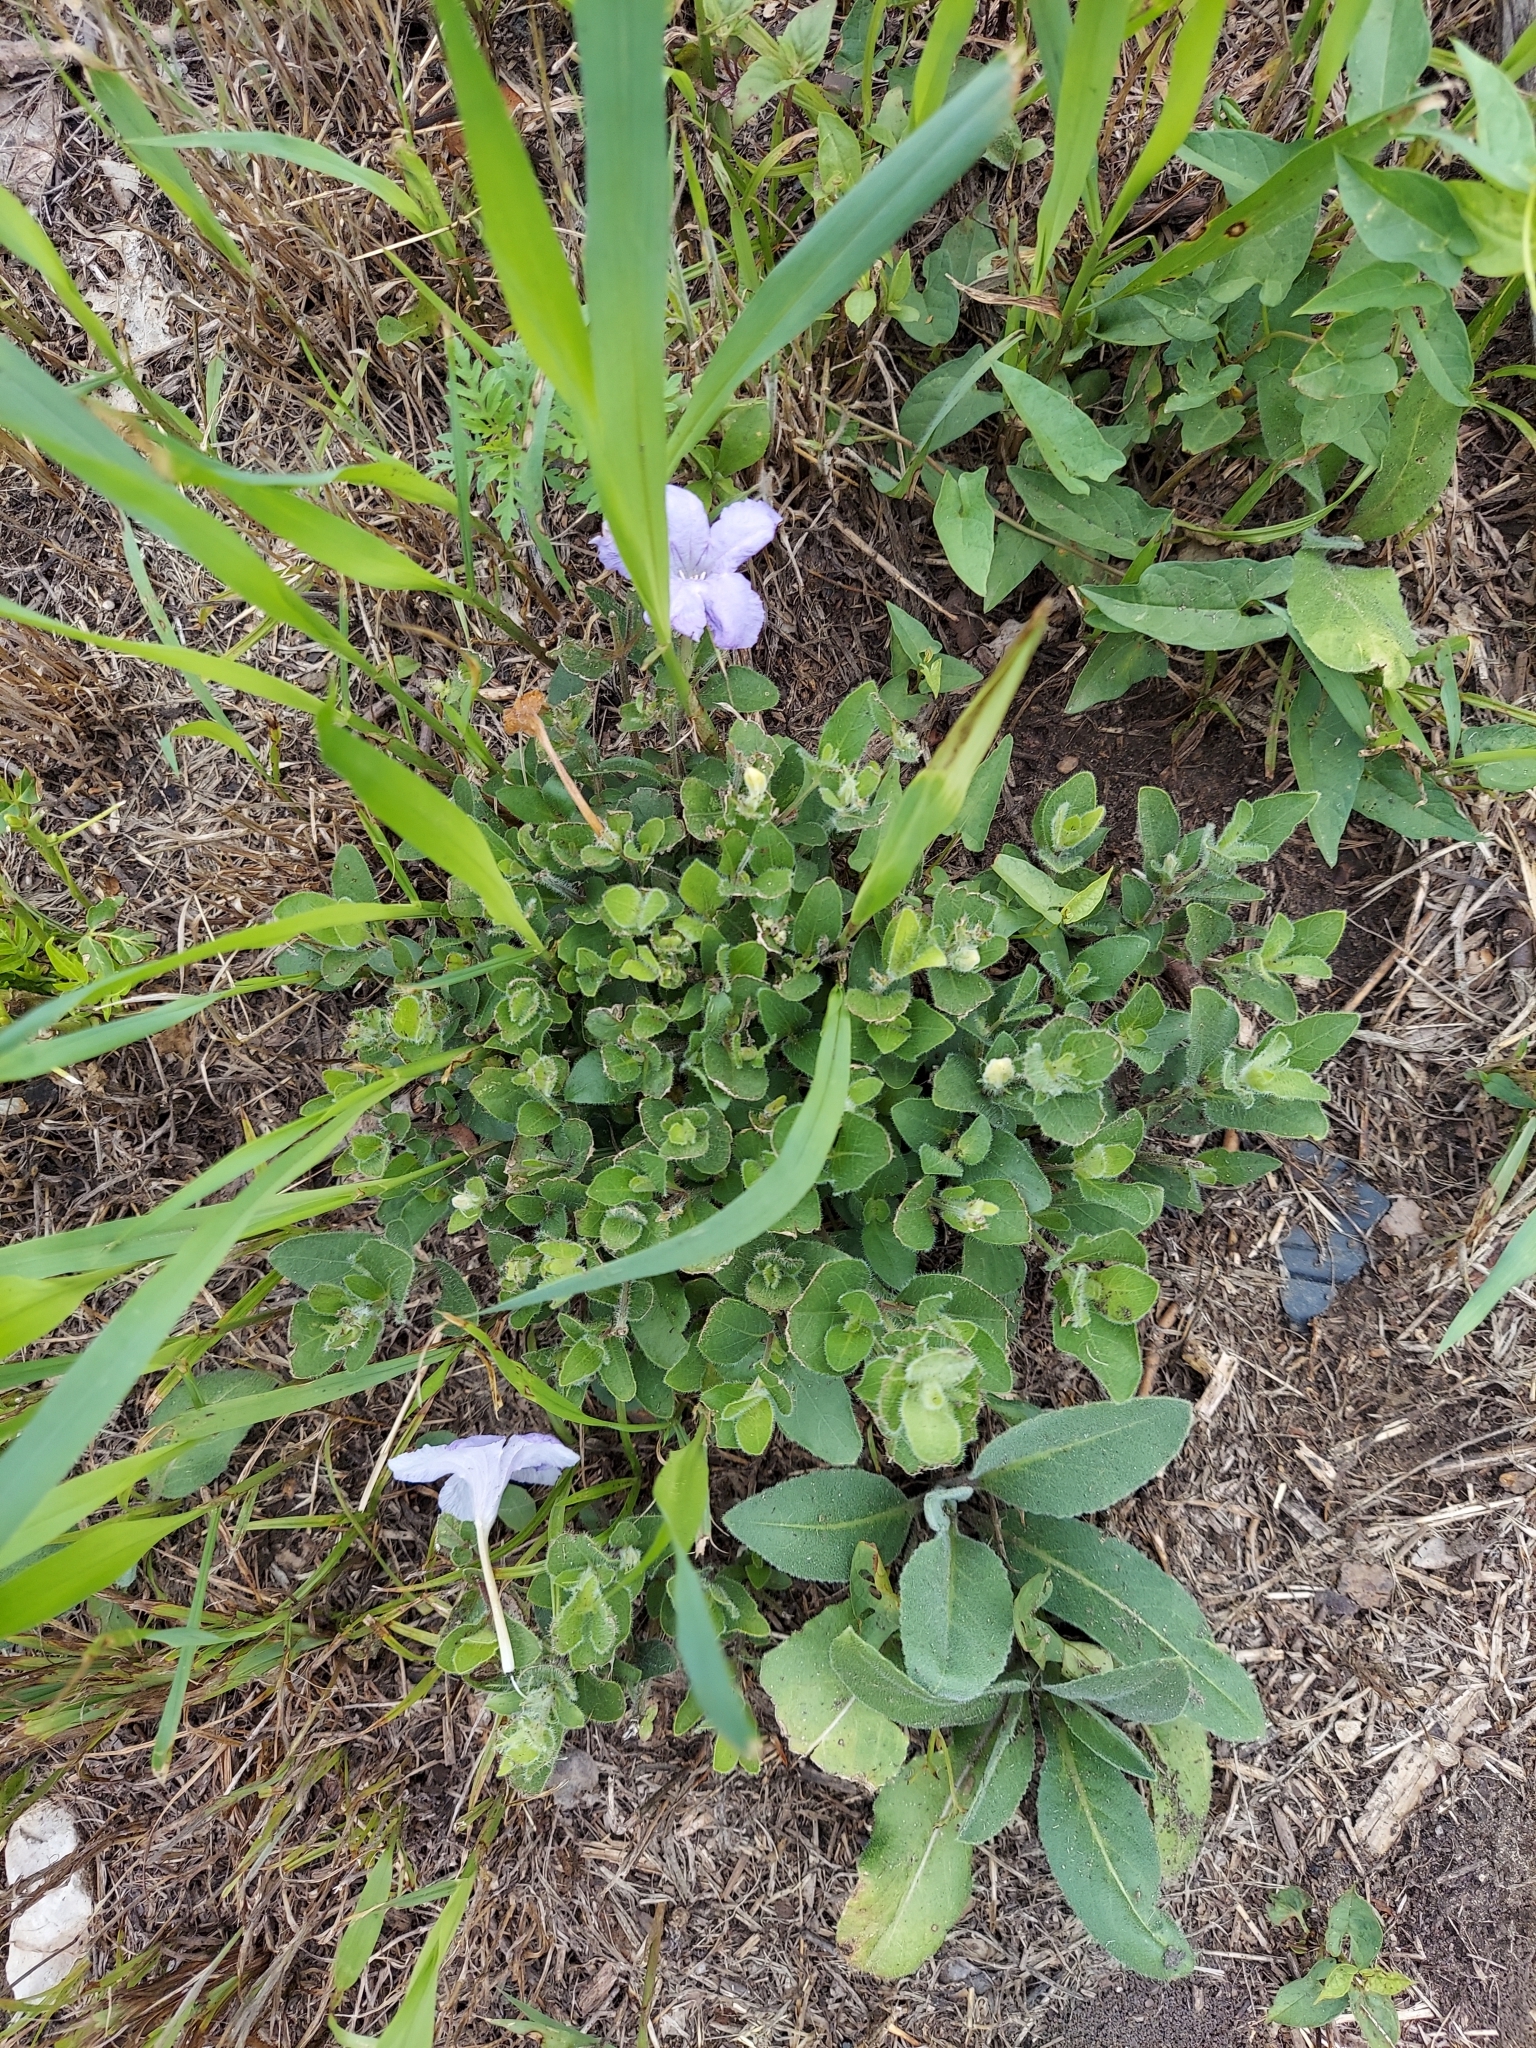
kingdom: Plantae
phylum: Tracheophyta
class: Magnoliopsida
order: Lamiales
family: Acanthaceae
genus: Ruellia
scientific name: Ruellia humilis
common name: Fringe-leaf ruellia
